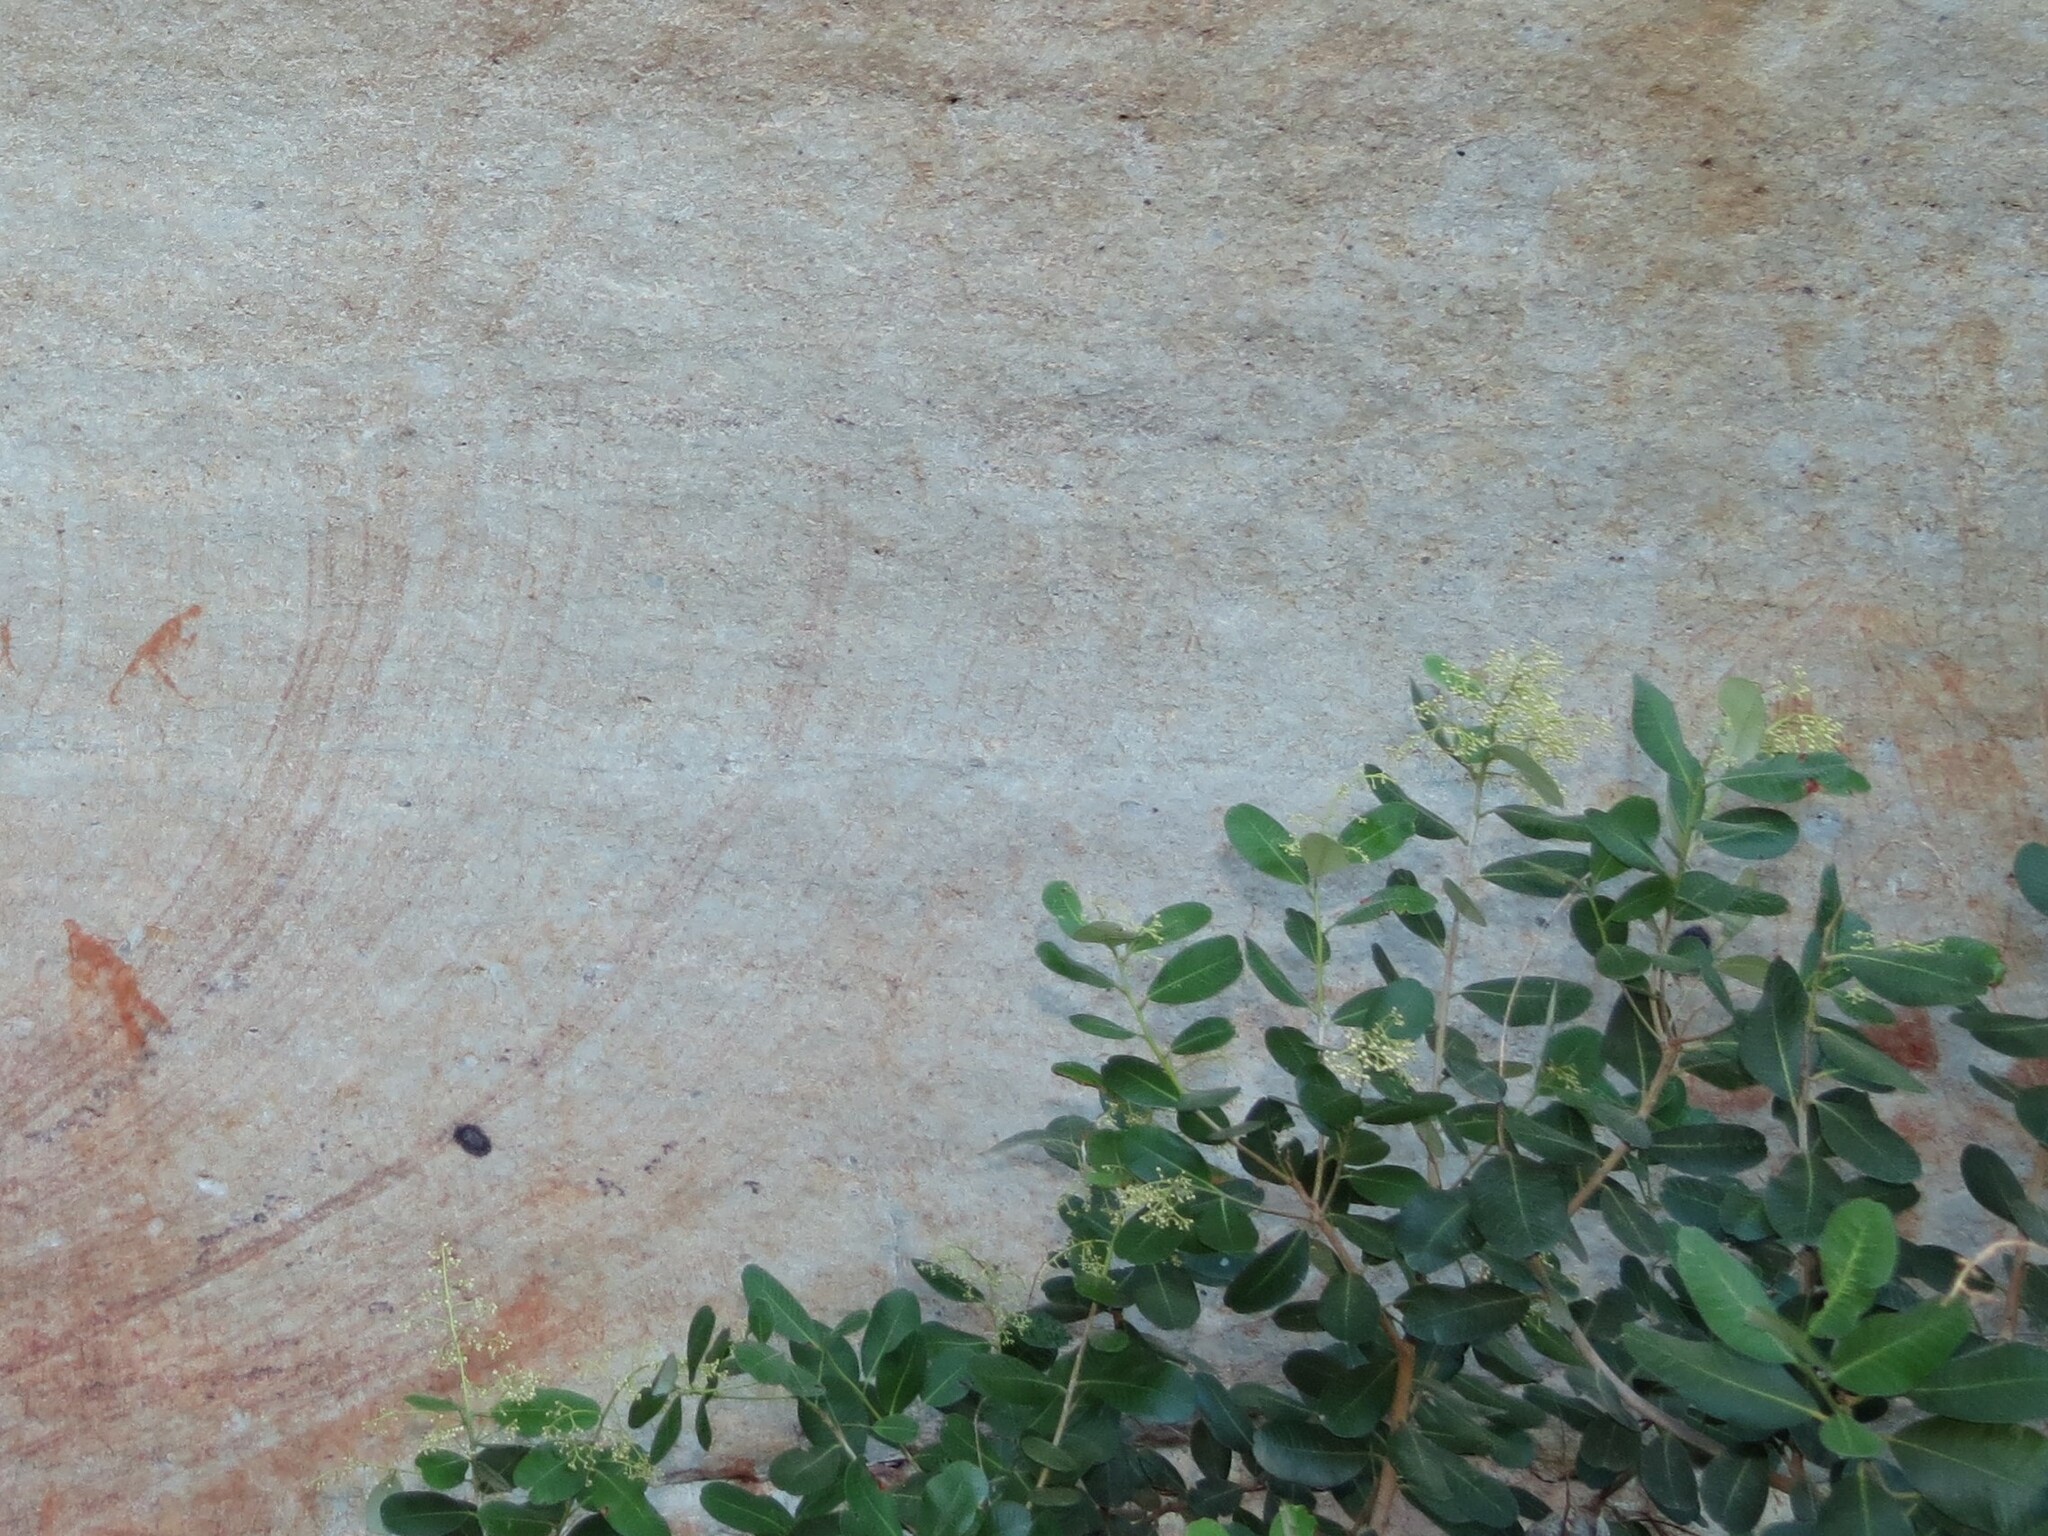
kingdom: Plantae
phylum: Tracheophyta
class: Magnoliopsida
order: Sapindales
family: Anacardiaceae
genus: Heeria
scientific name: Heeria argentea
